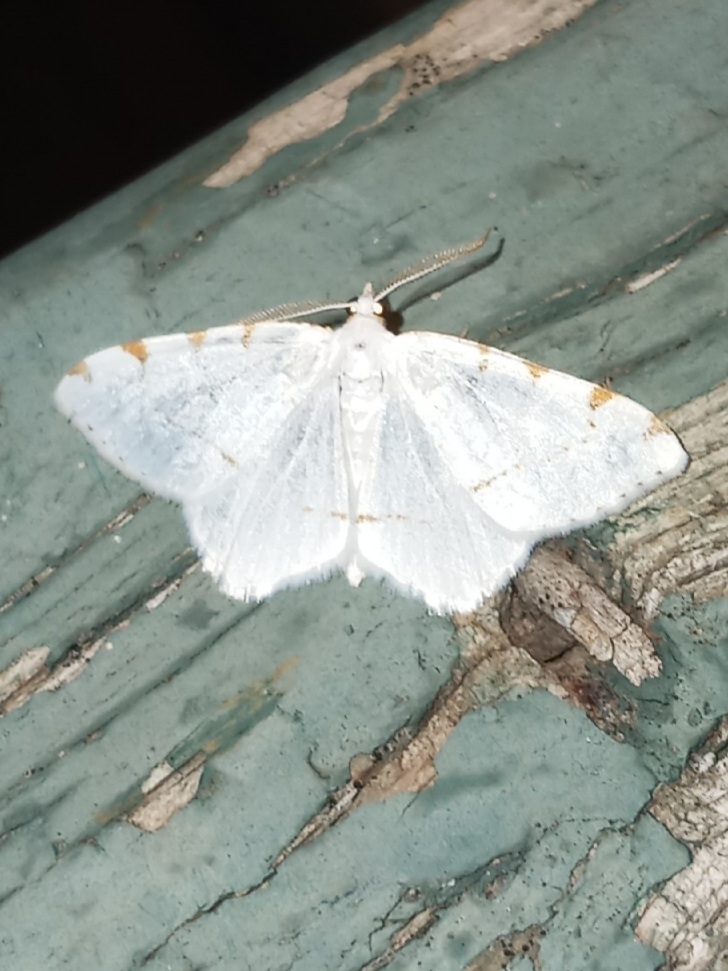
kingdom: Animalia
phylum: Arthropoda
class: Insecta
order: Lepidoptera
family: Geometridae
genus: Macaria
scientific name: Macaria pustularia
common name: Lesser maple spanworm moth
